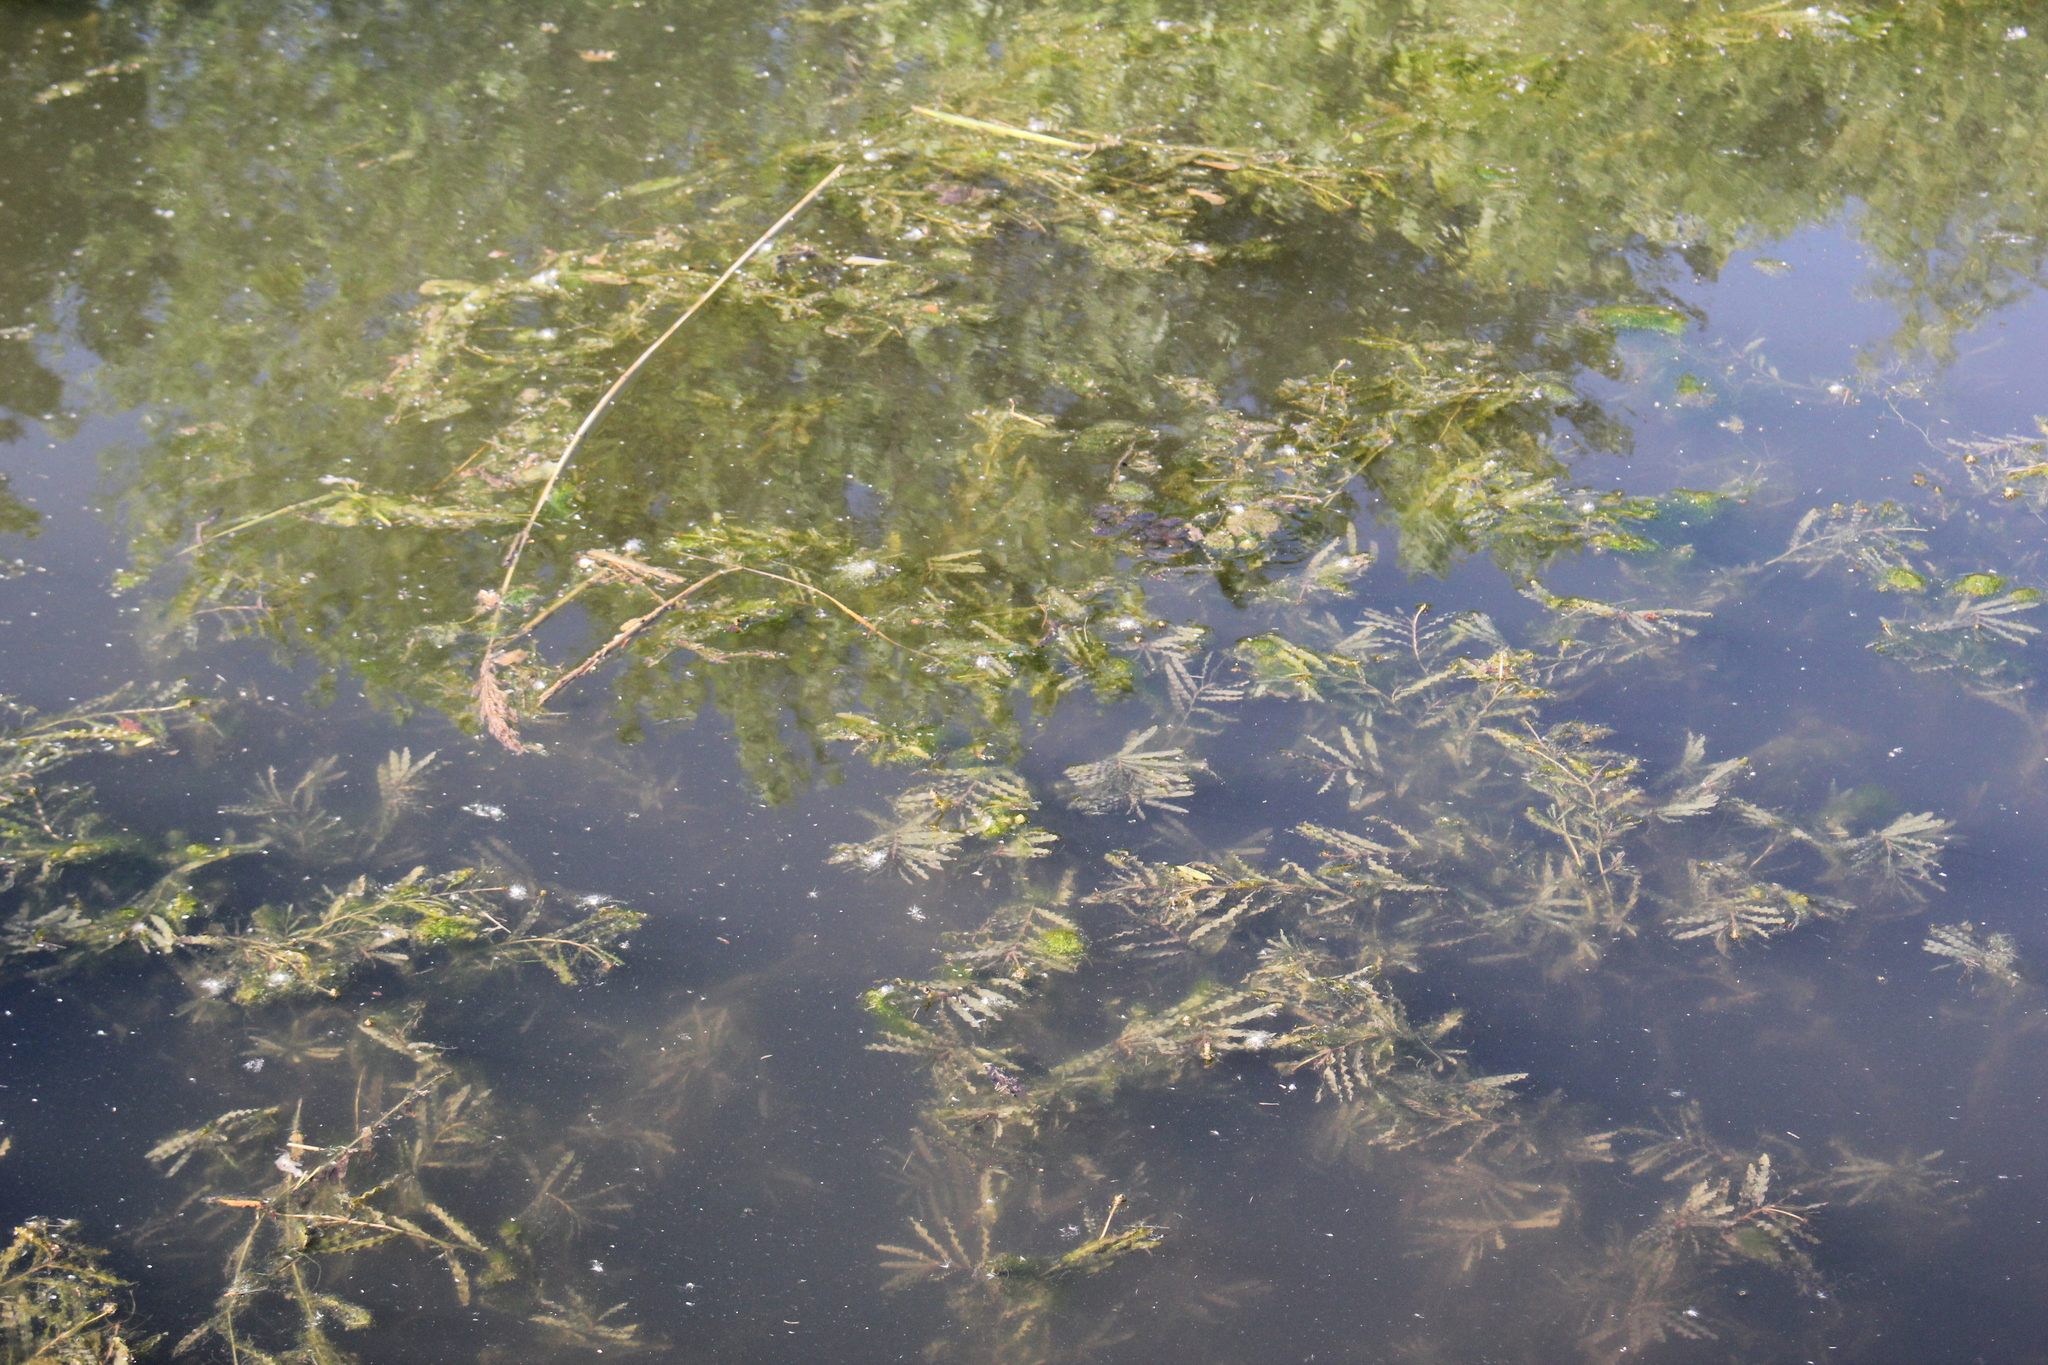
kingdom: Plantae
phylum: Tracheophyta
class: Liliopsida
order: Alismatales
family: Potamogetonaceae
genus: Potamogeton
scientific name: Potamogeton crispus
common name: Curled pondweed
